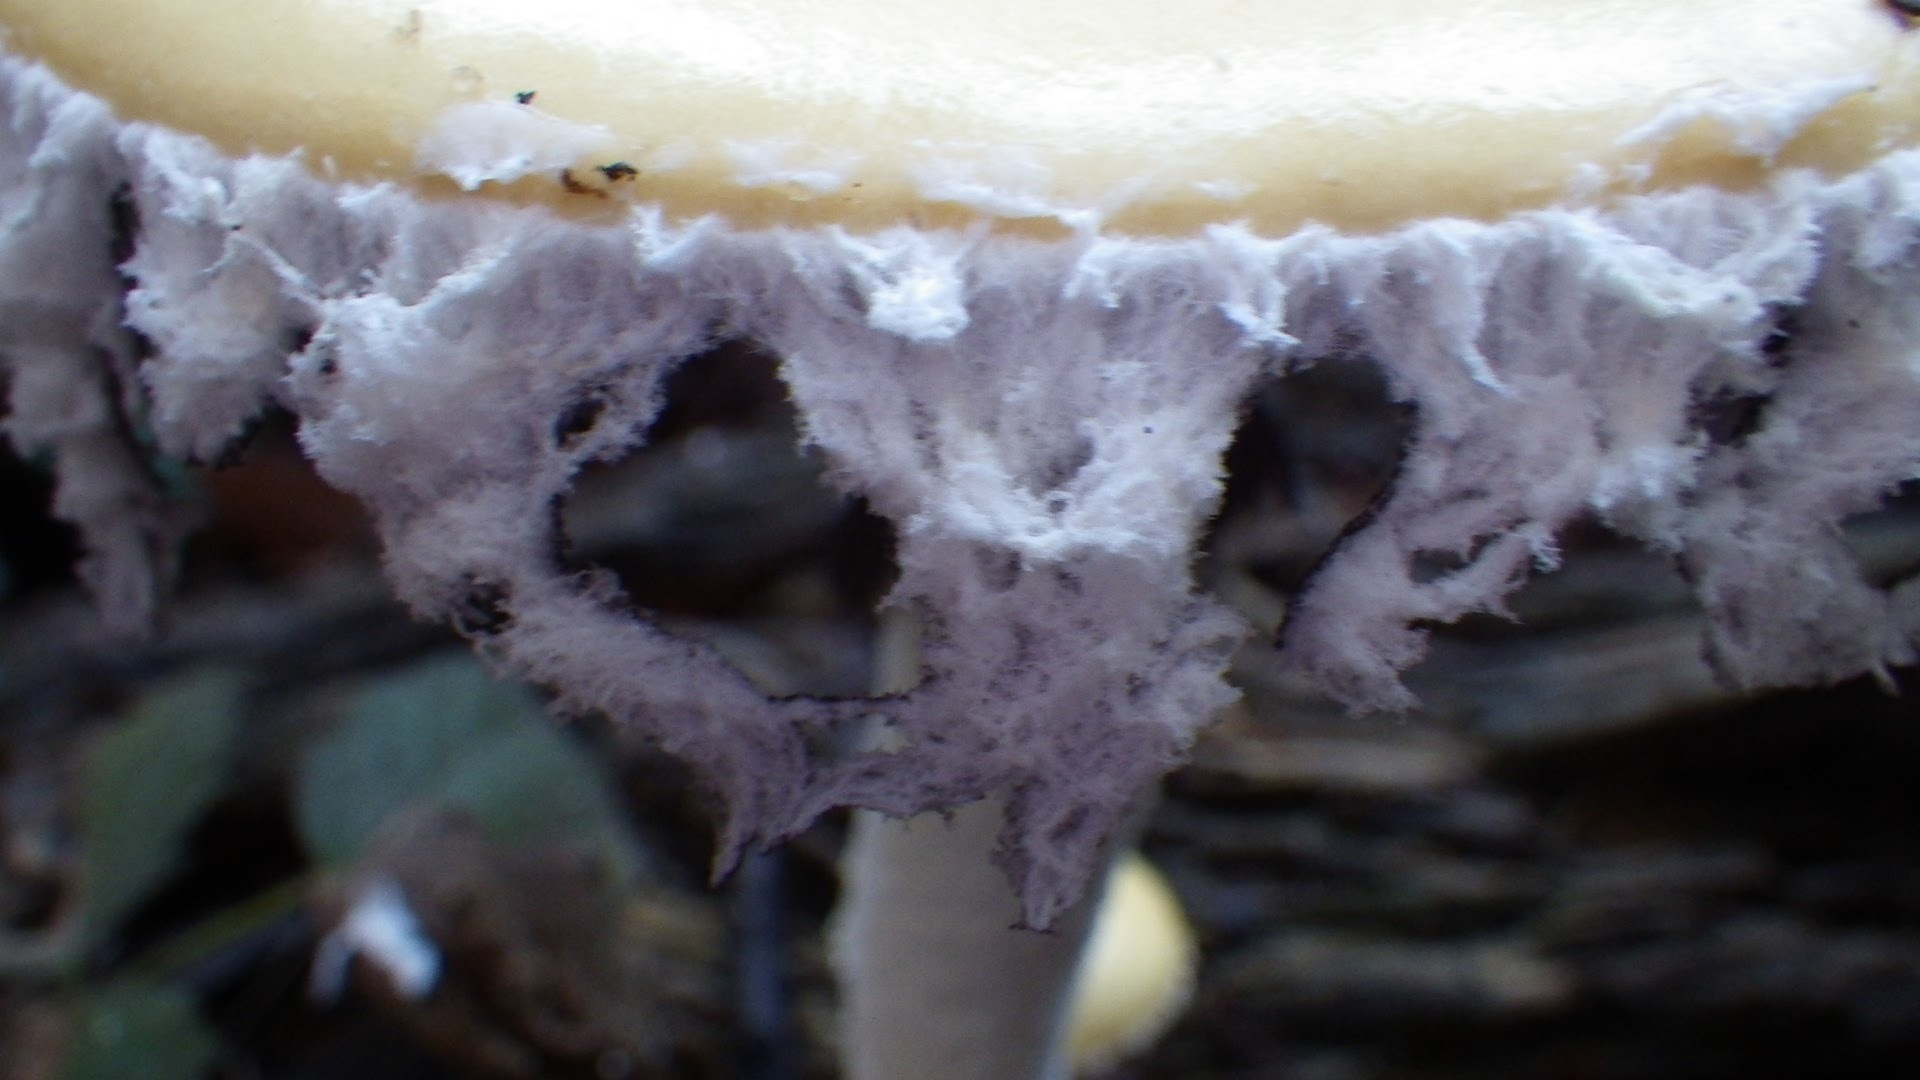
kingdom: Fungi
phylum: Basidiomycota
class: Agaricomycetes
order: Agaricales
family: Strophariaceae
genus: Stropharia
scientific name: Stropharia ambigua
